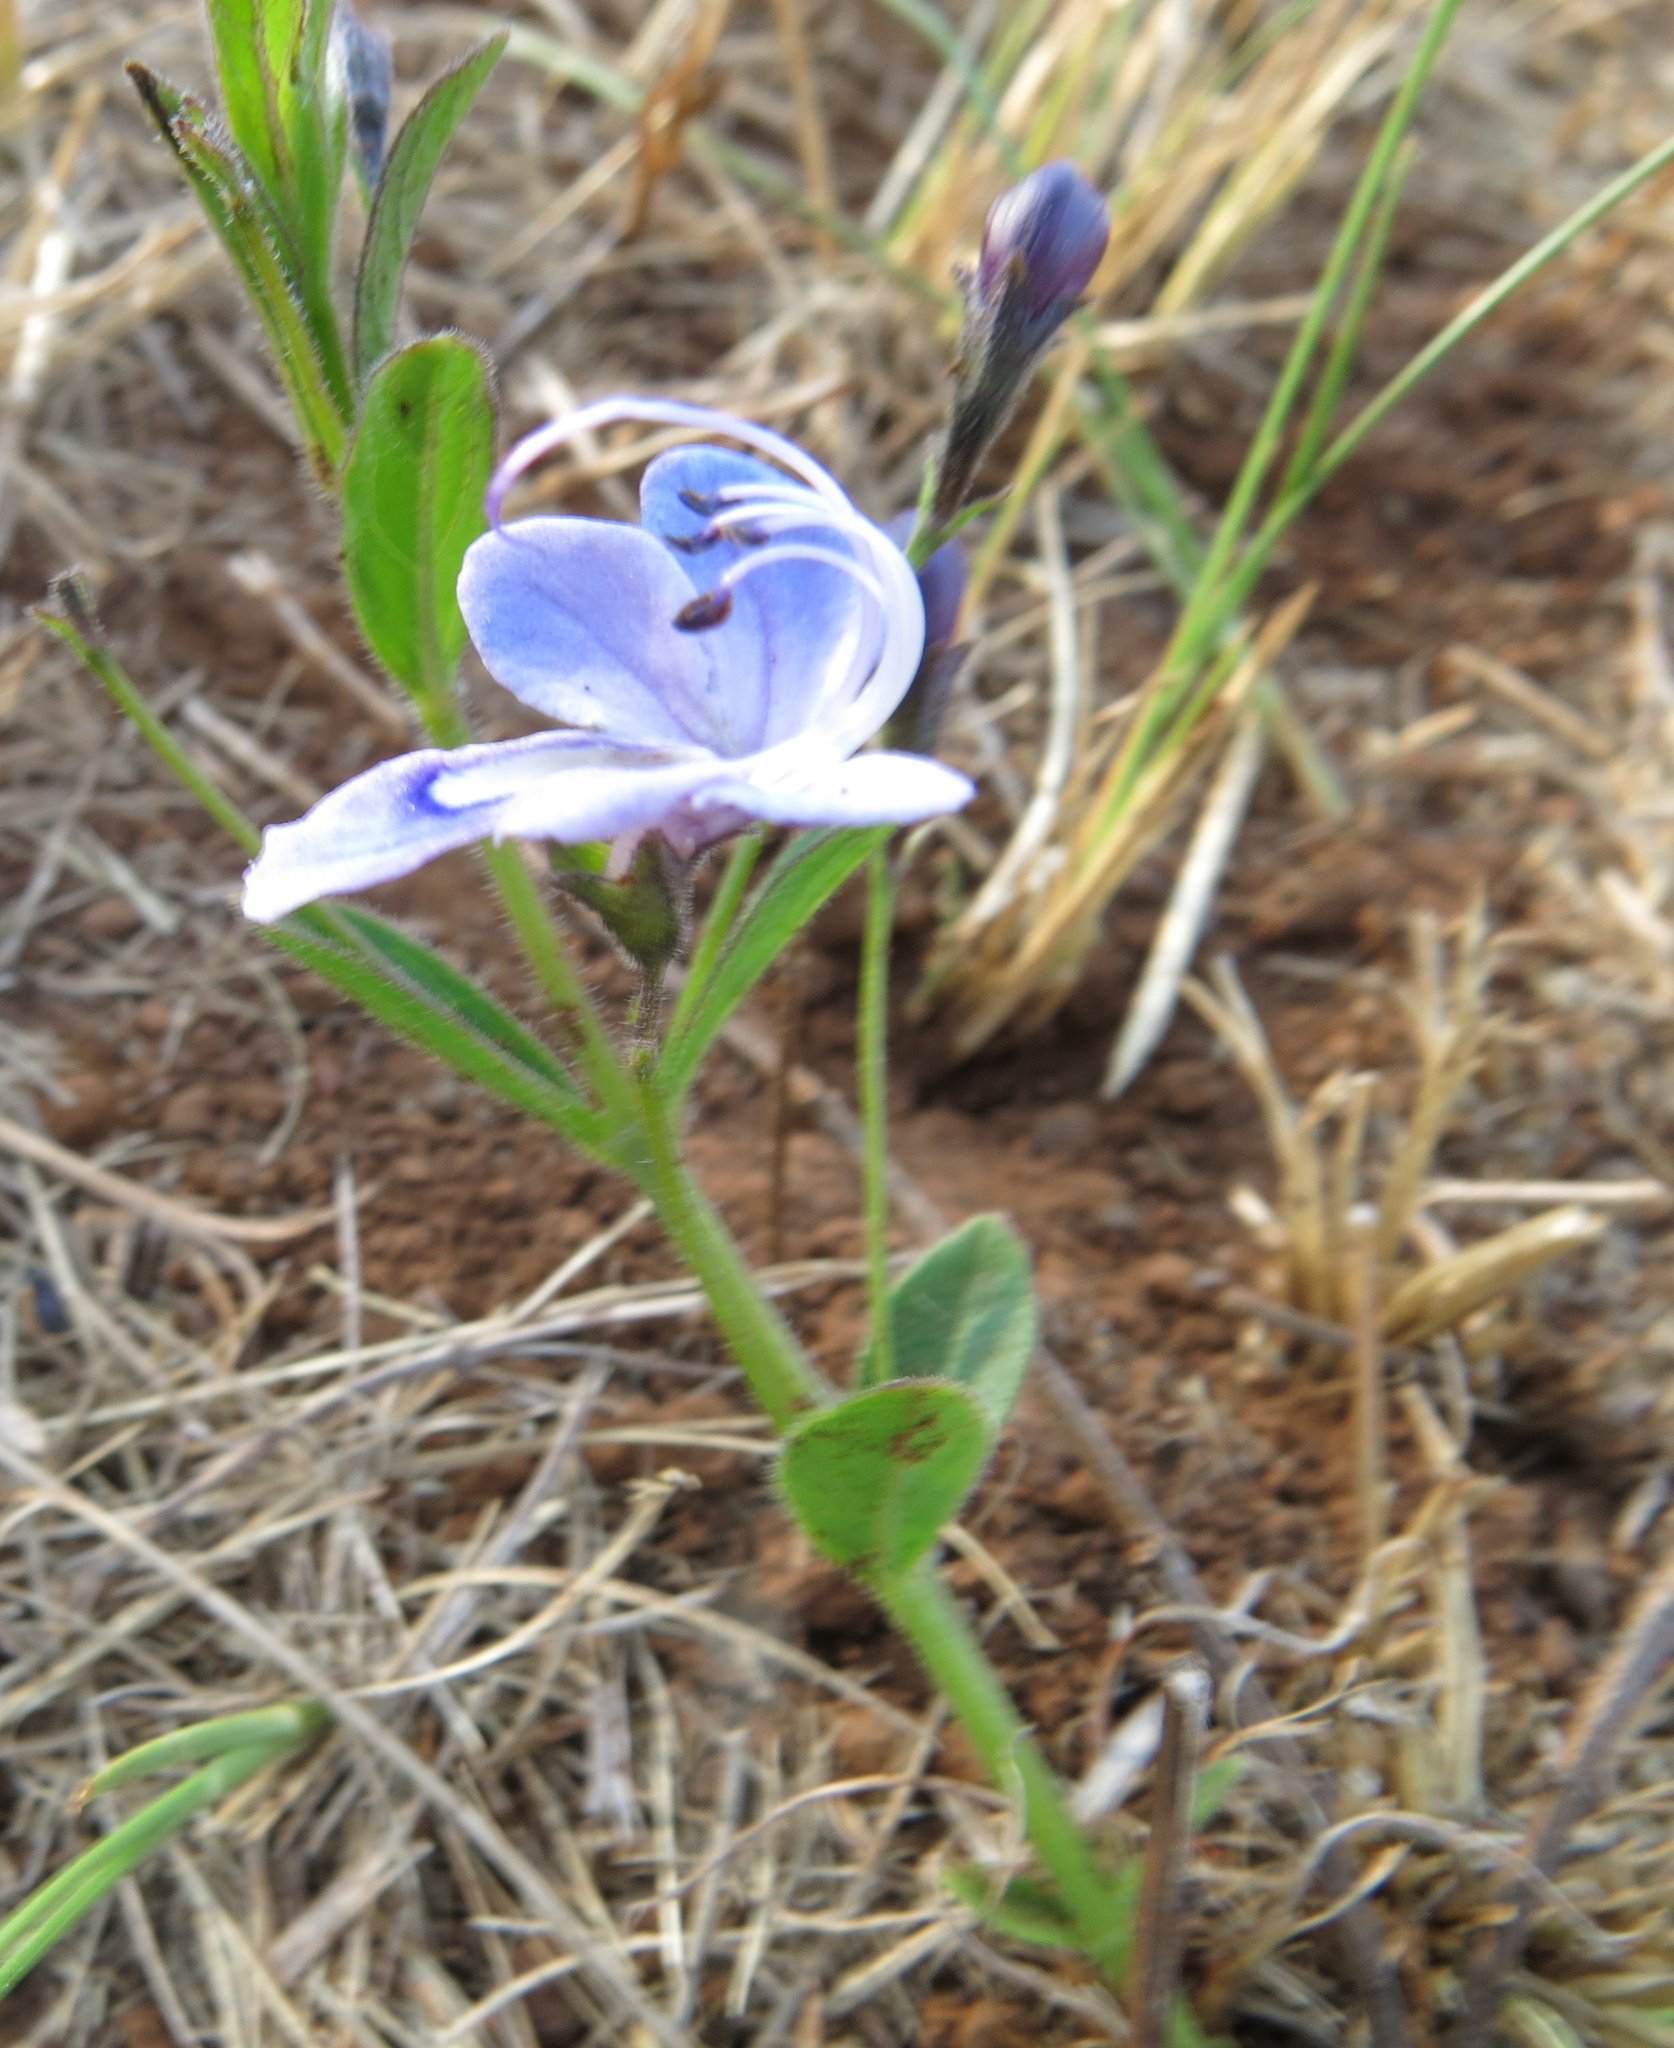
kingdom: Plantae
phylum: Tracheophyta
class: Magnoliopsida
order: Lamiales
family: Lamiaceae
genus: Rotheca
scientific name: Rotheca hirsuta
